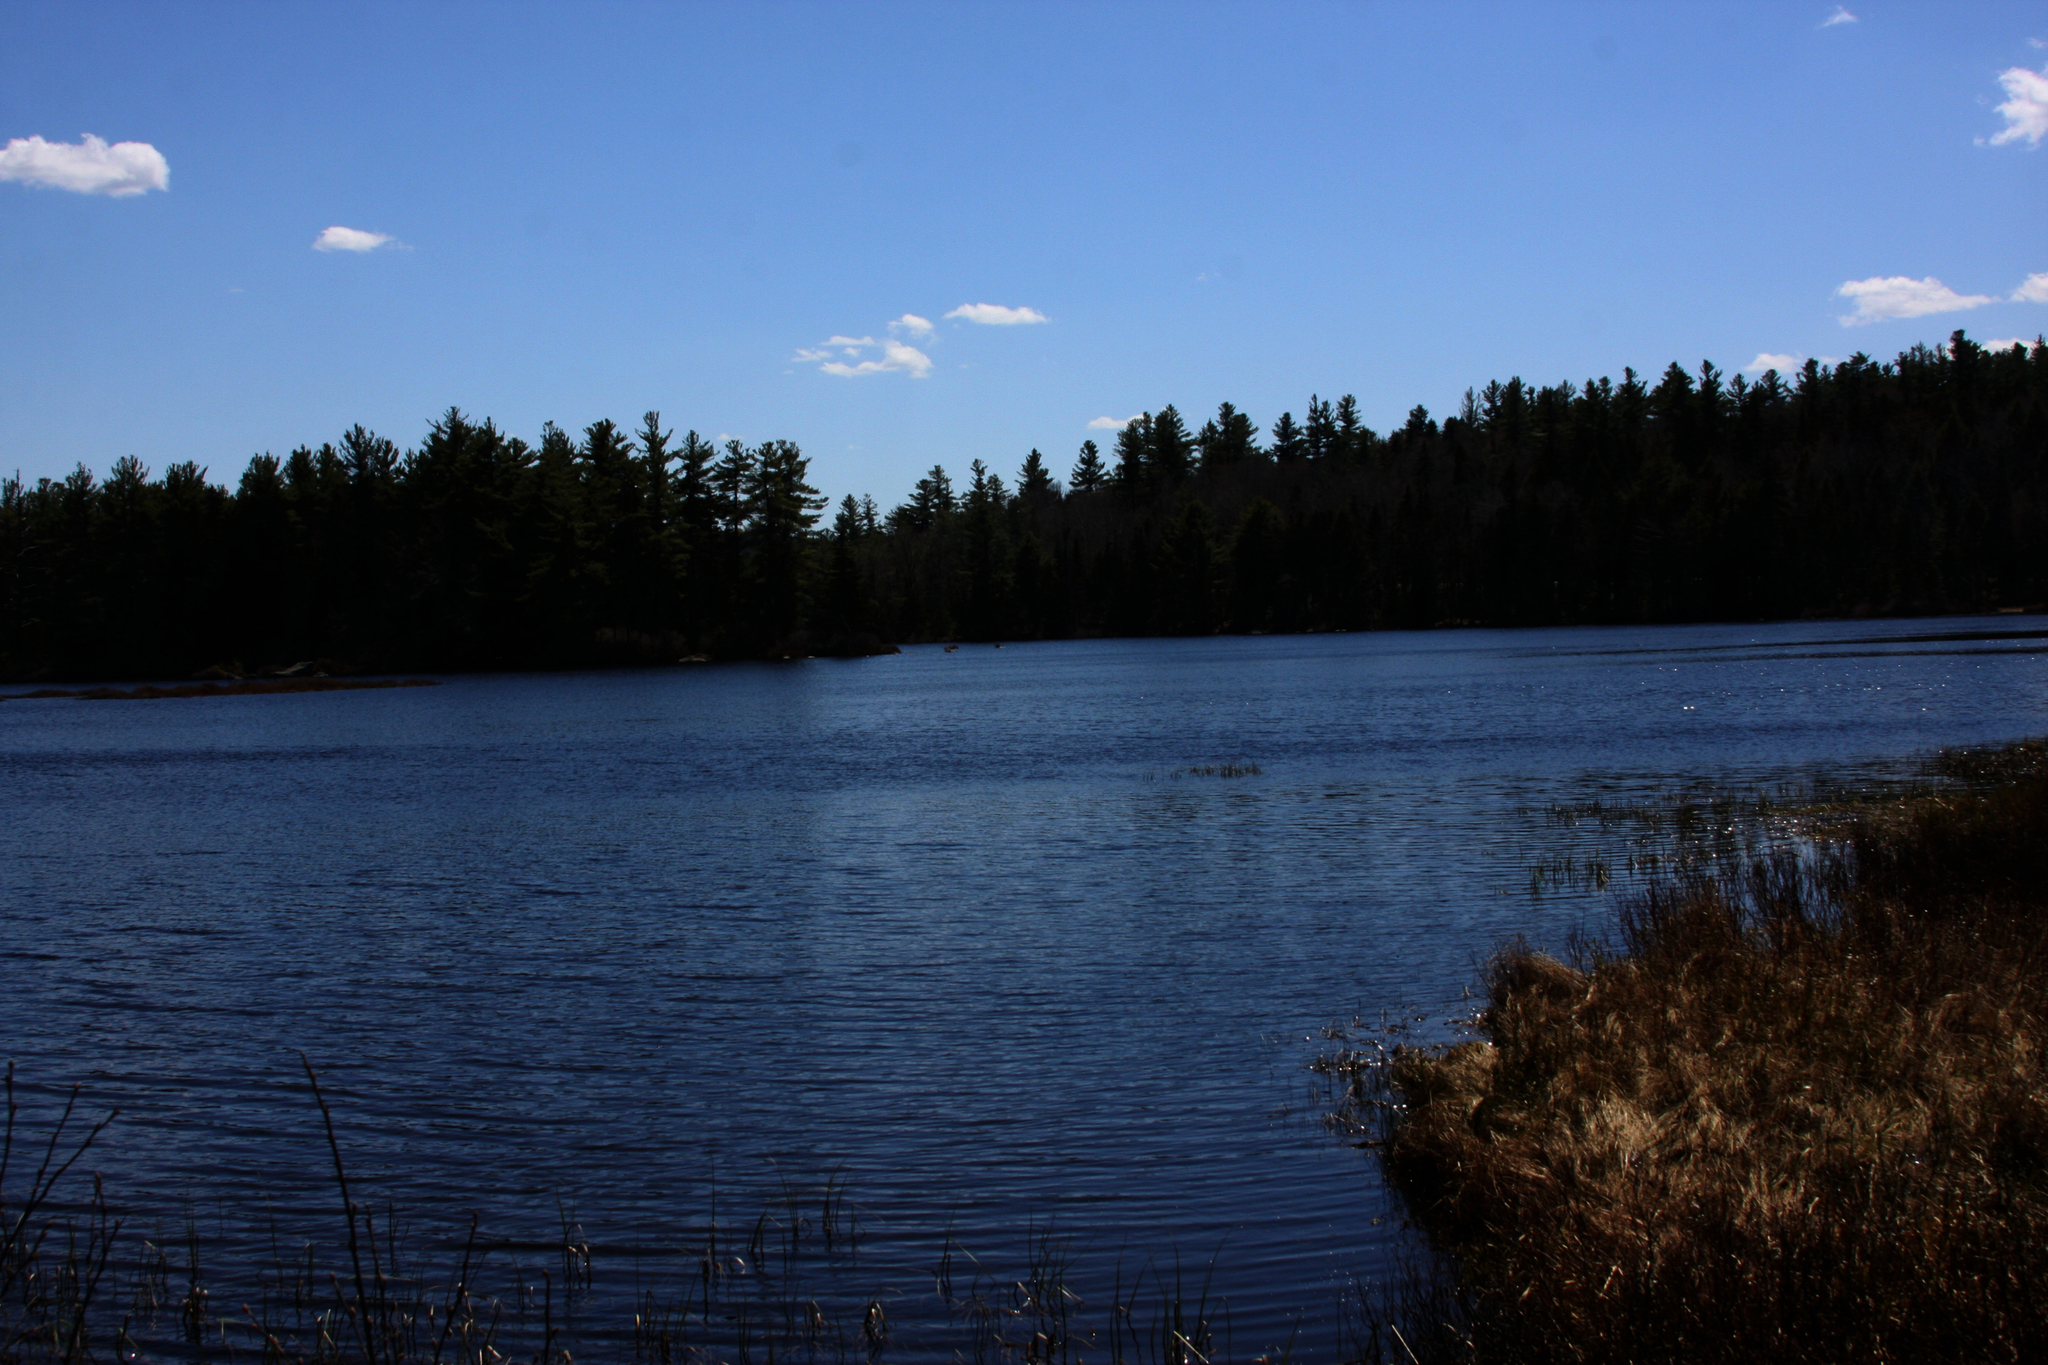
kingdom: Plantae
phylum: Tracheophyta
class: Pinopsida
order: Pinales
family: Pinaceae
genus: Pinus
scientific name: Pinus strobus
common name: Weymouth pine
